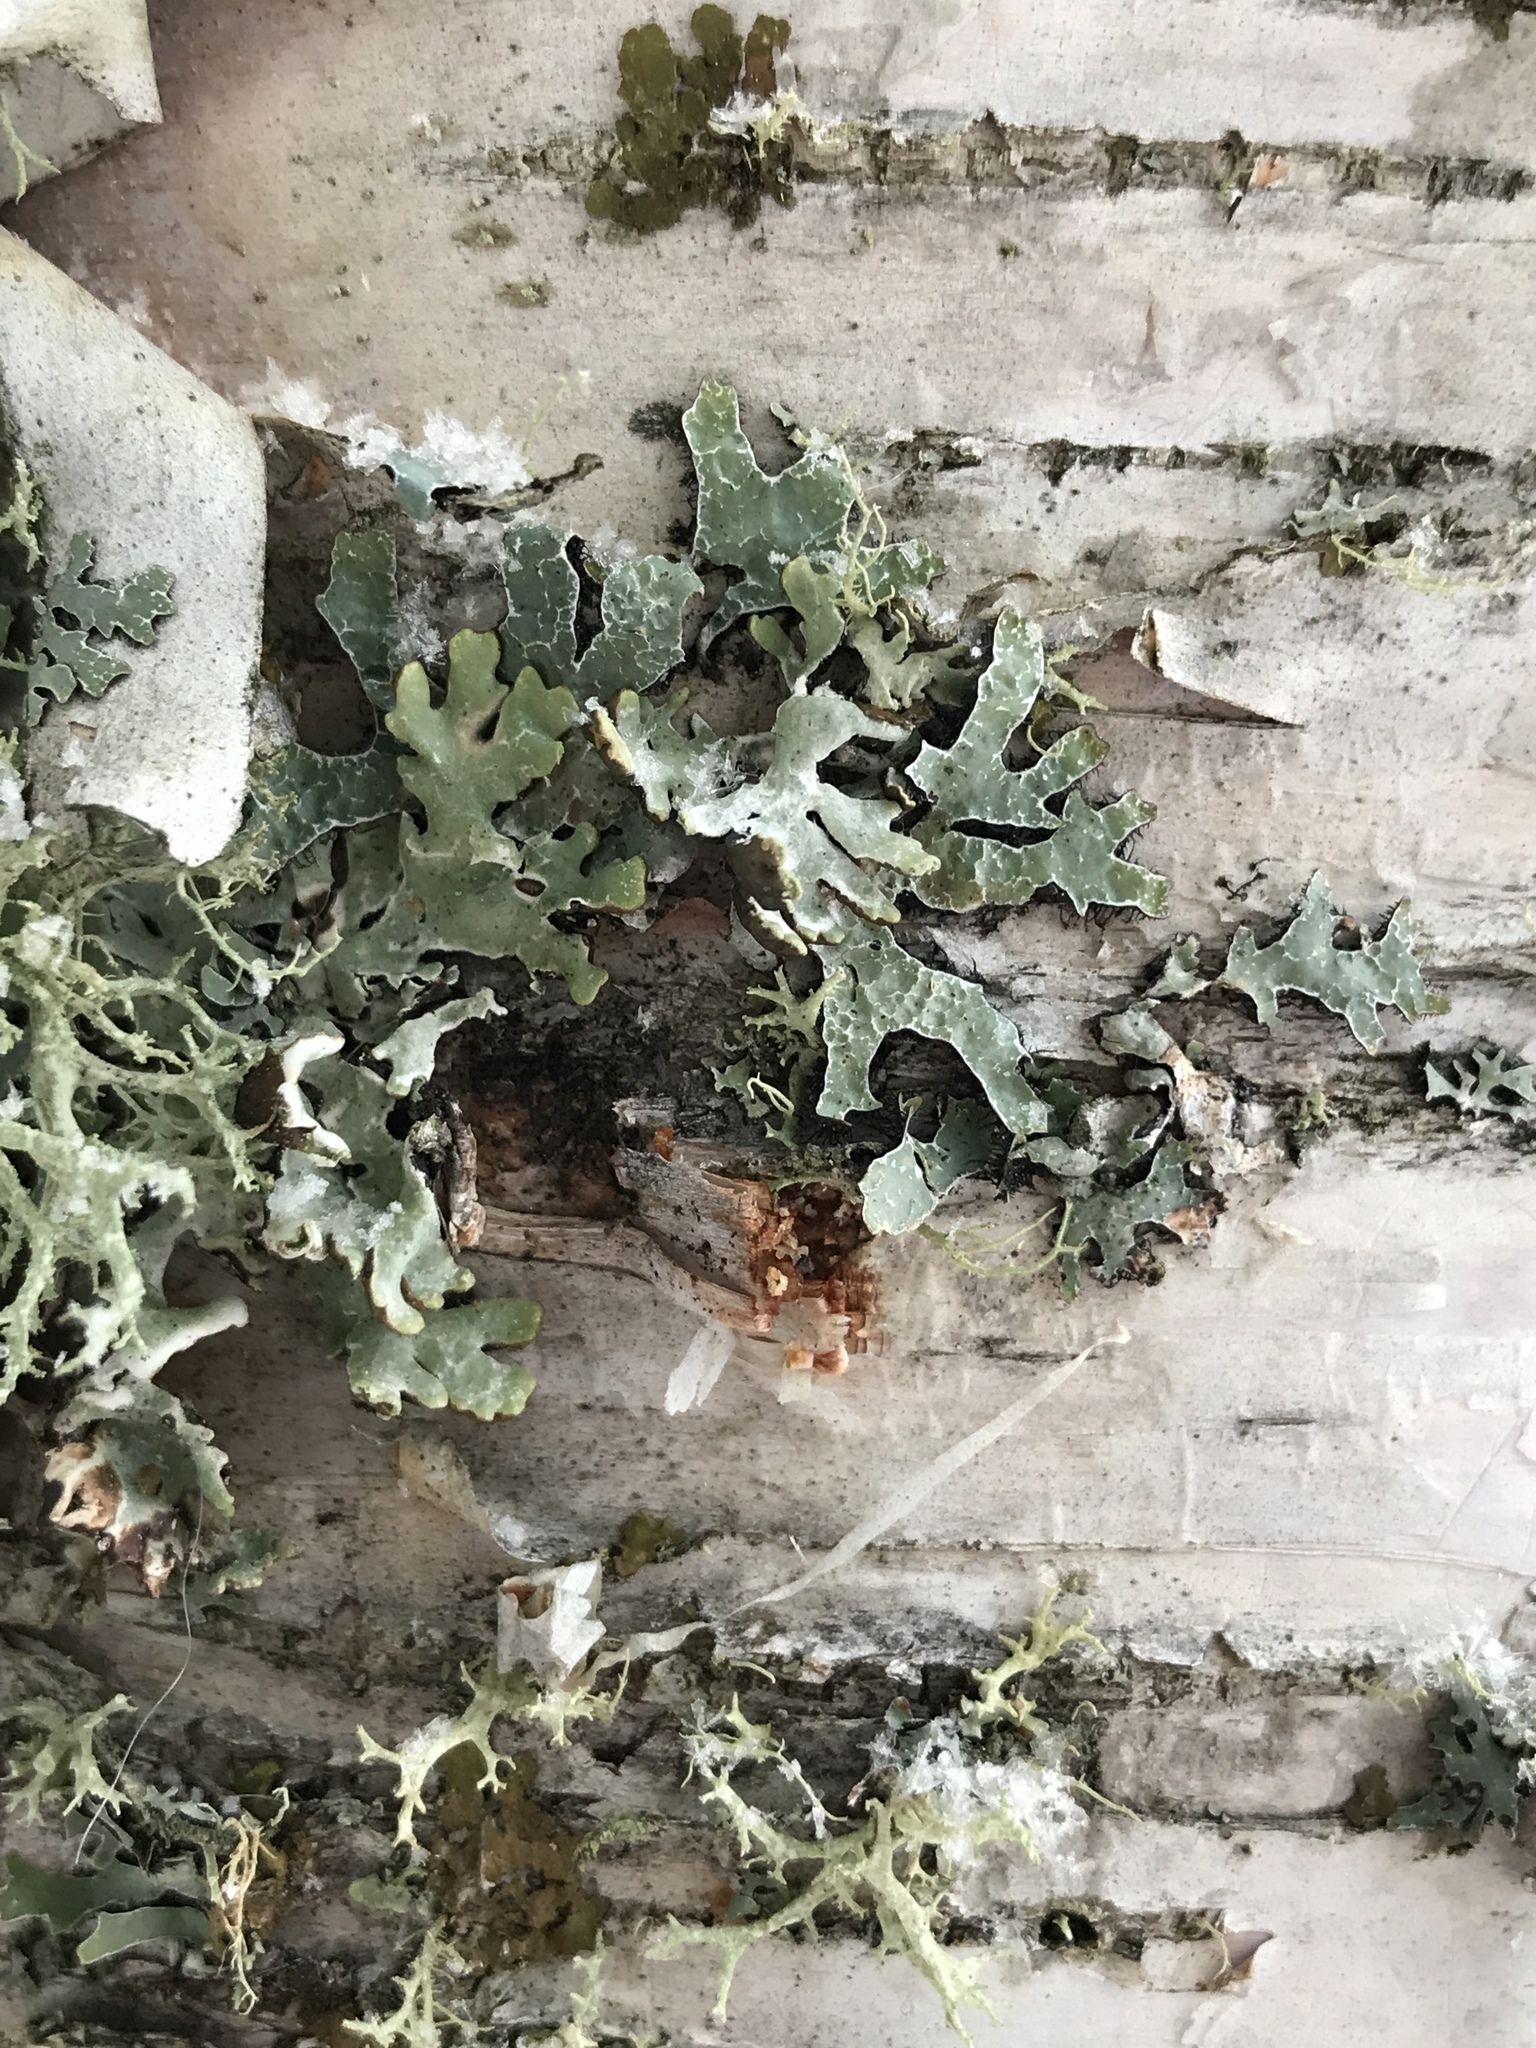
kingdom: Fungi
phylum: Ascomycota
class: Lecanoromycetes
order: Lecanorales
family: Parmeliaceae
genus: Parmelia
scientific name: Parmelia sulcata
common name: Netted shield lichen
